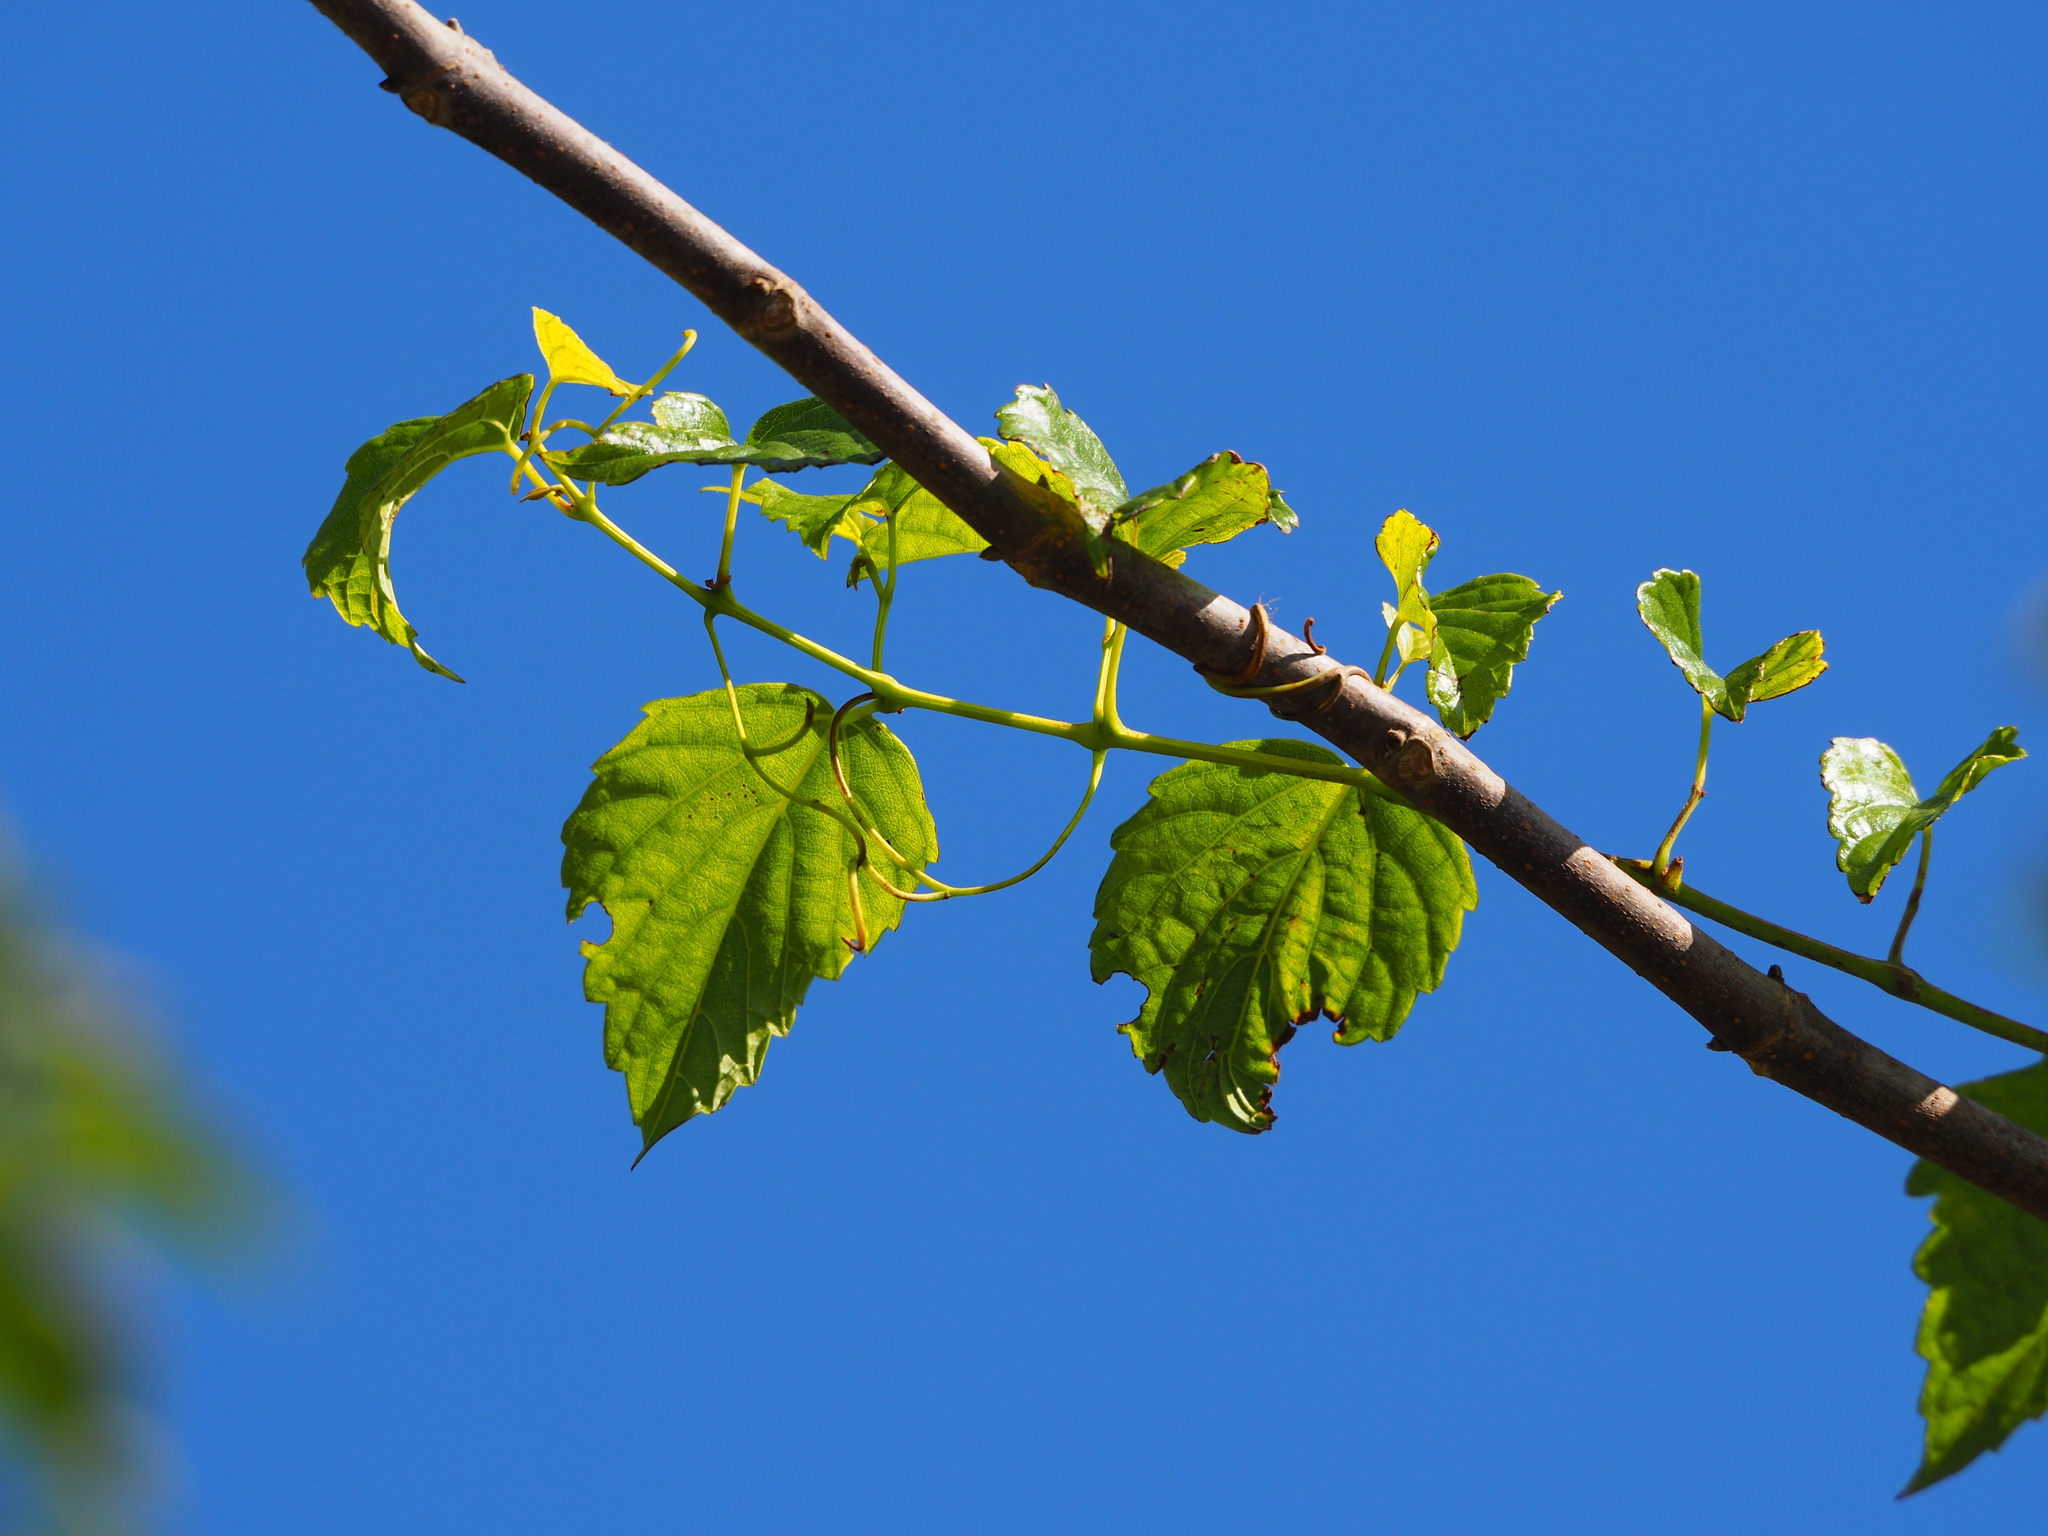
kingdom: Plantae
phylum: Tracheophyta
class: Magnoliopsida
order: Vitales
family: Vitaceae
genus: Ampelopsis
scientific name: Ampelopsis glandulosa
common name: Amur peppervine
